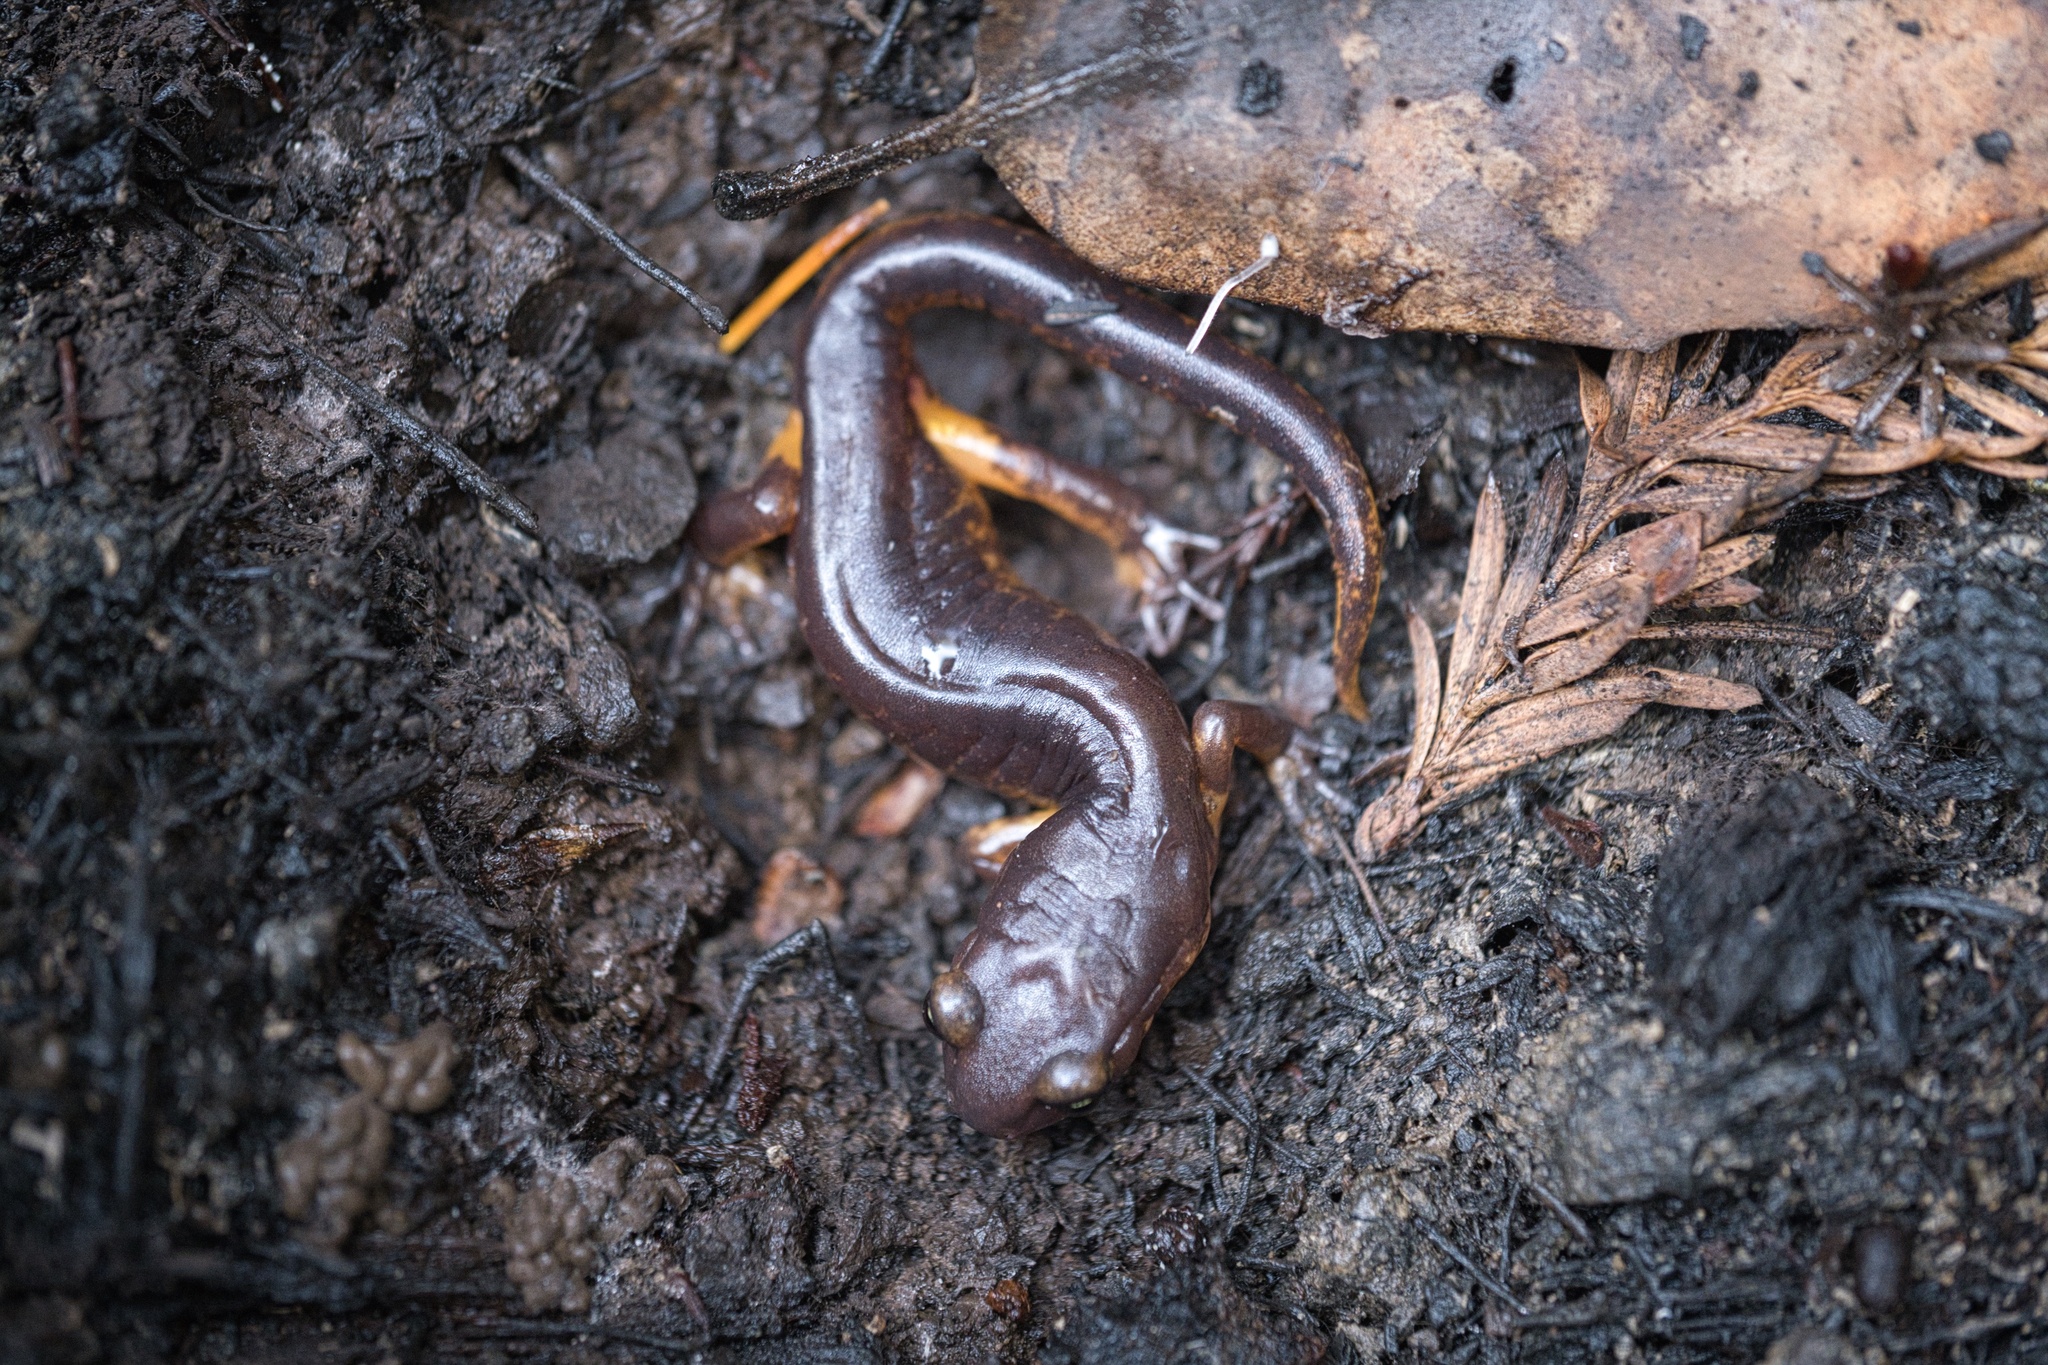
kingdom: Animalia
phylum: Chordata
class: Amphibia
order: Caudata
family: Plethodontidae
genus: Ensatina
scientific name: Ensatina eschscholtzii
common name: Ensatina
